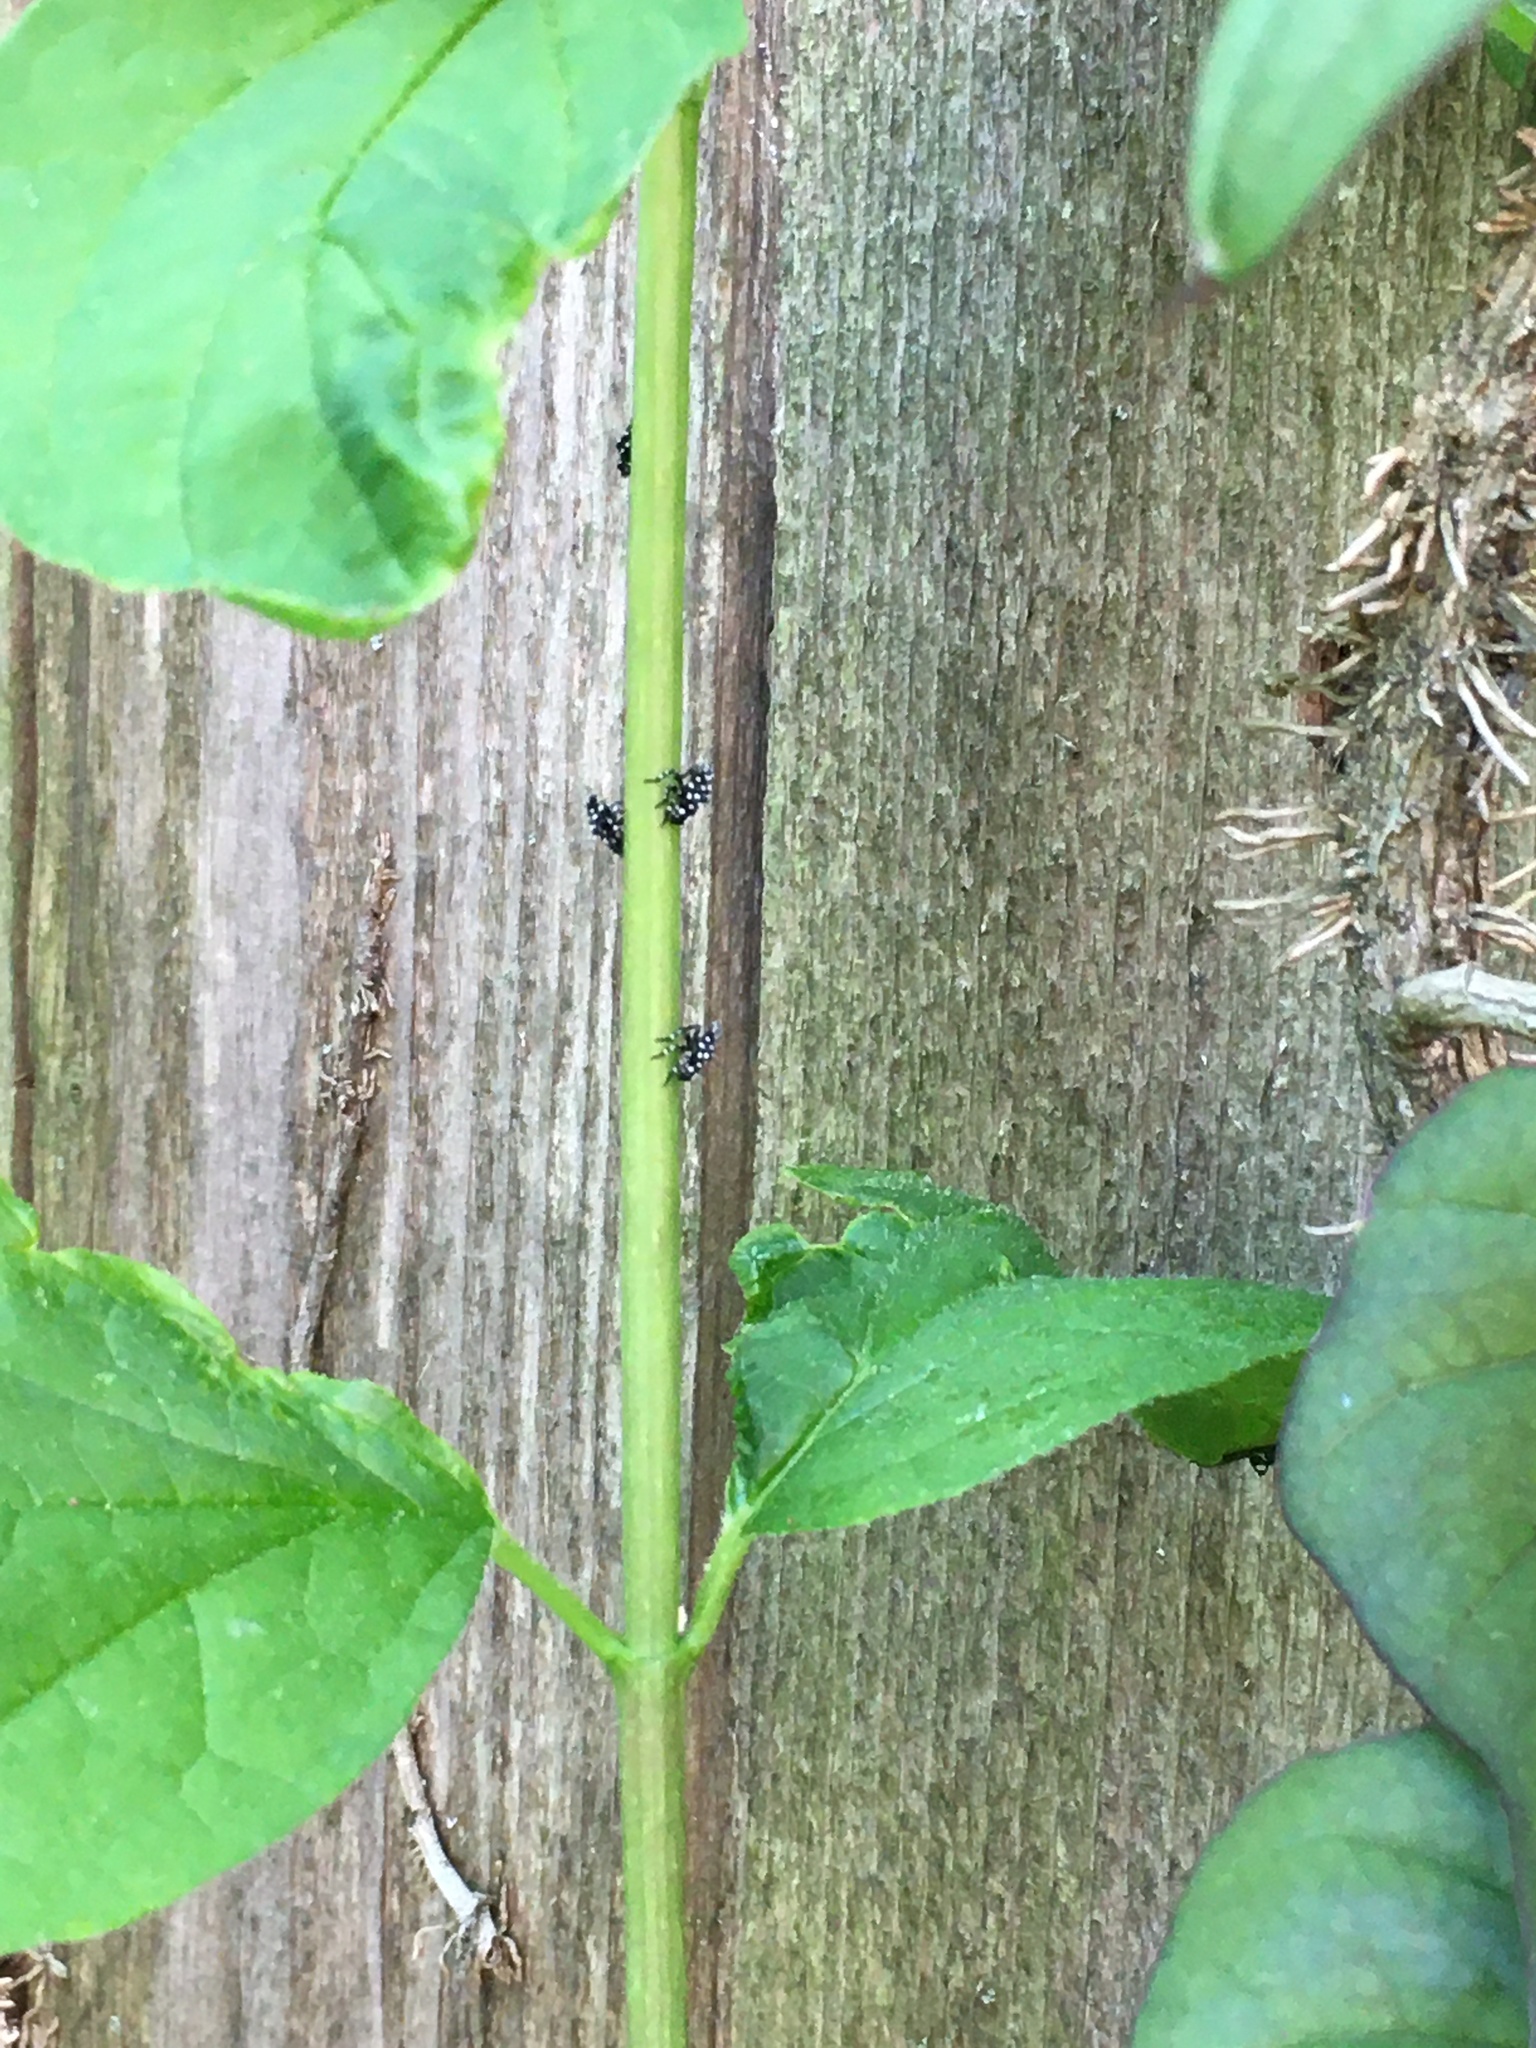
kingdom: Animalia
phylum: Arthropoda
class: Insecta
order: Hemiptera
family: Fulgoridae
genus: Lycorma
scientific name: Lycorma delicatula
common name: Spotted lanternfly
